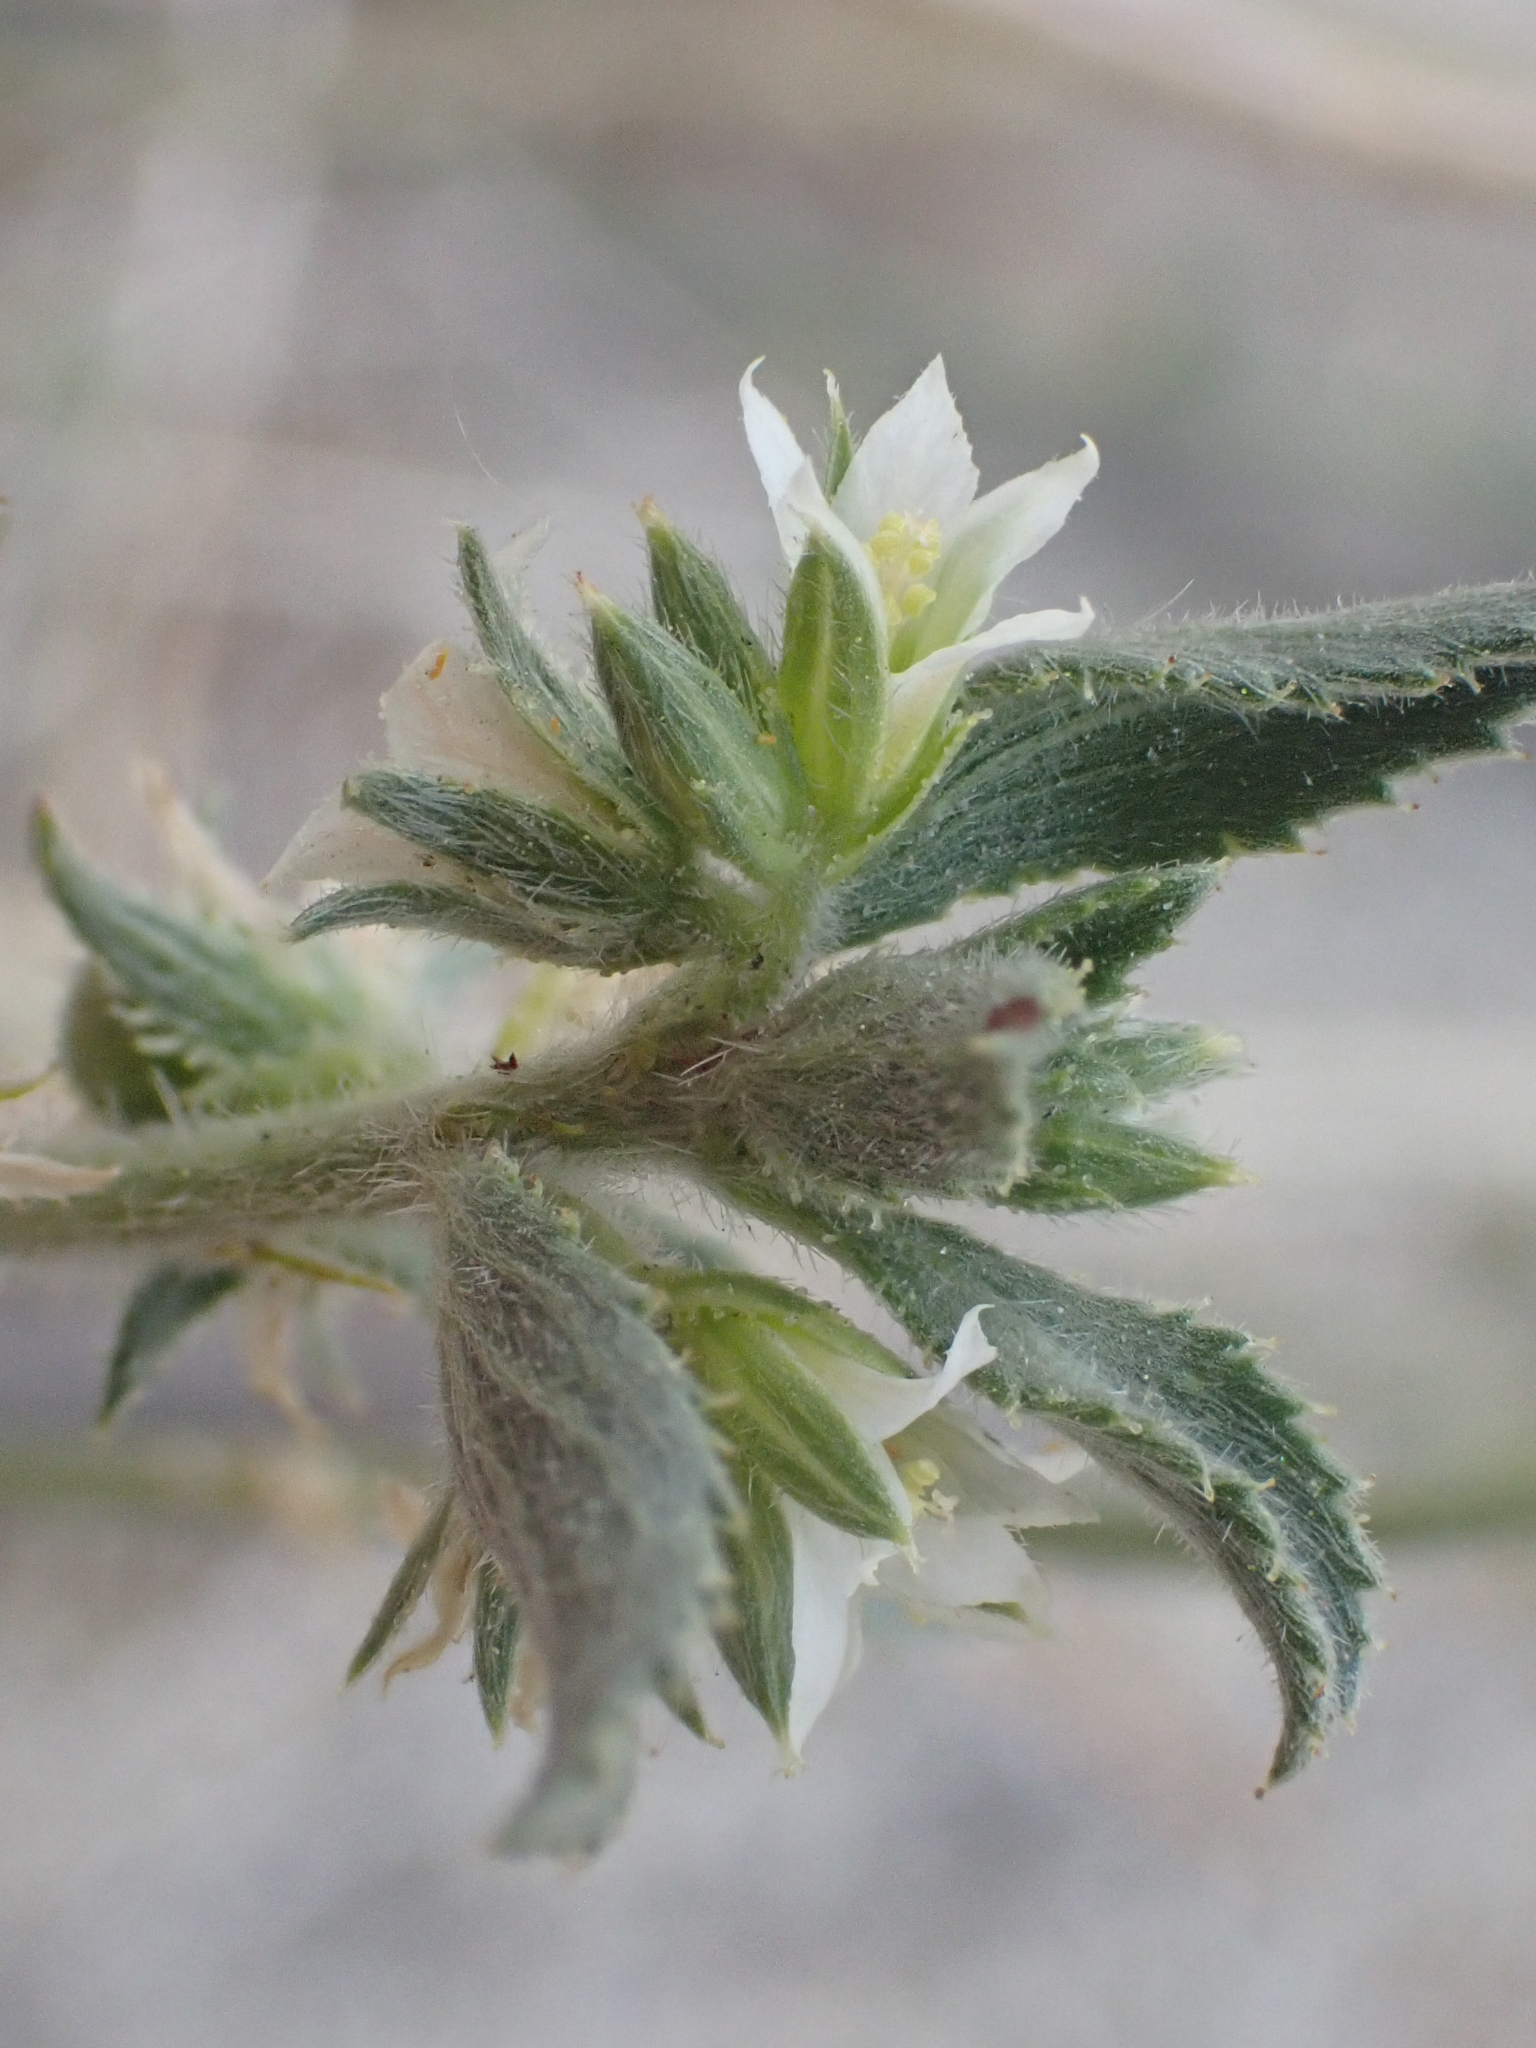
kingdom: Plantae
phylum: Tracheophyta
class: Magnoliopsida
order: Malpighiales
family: Euphorbiaceae
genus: Ditaxis
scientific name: Ditaxis claryana
